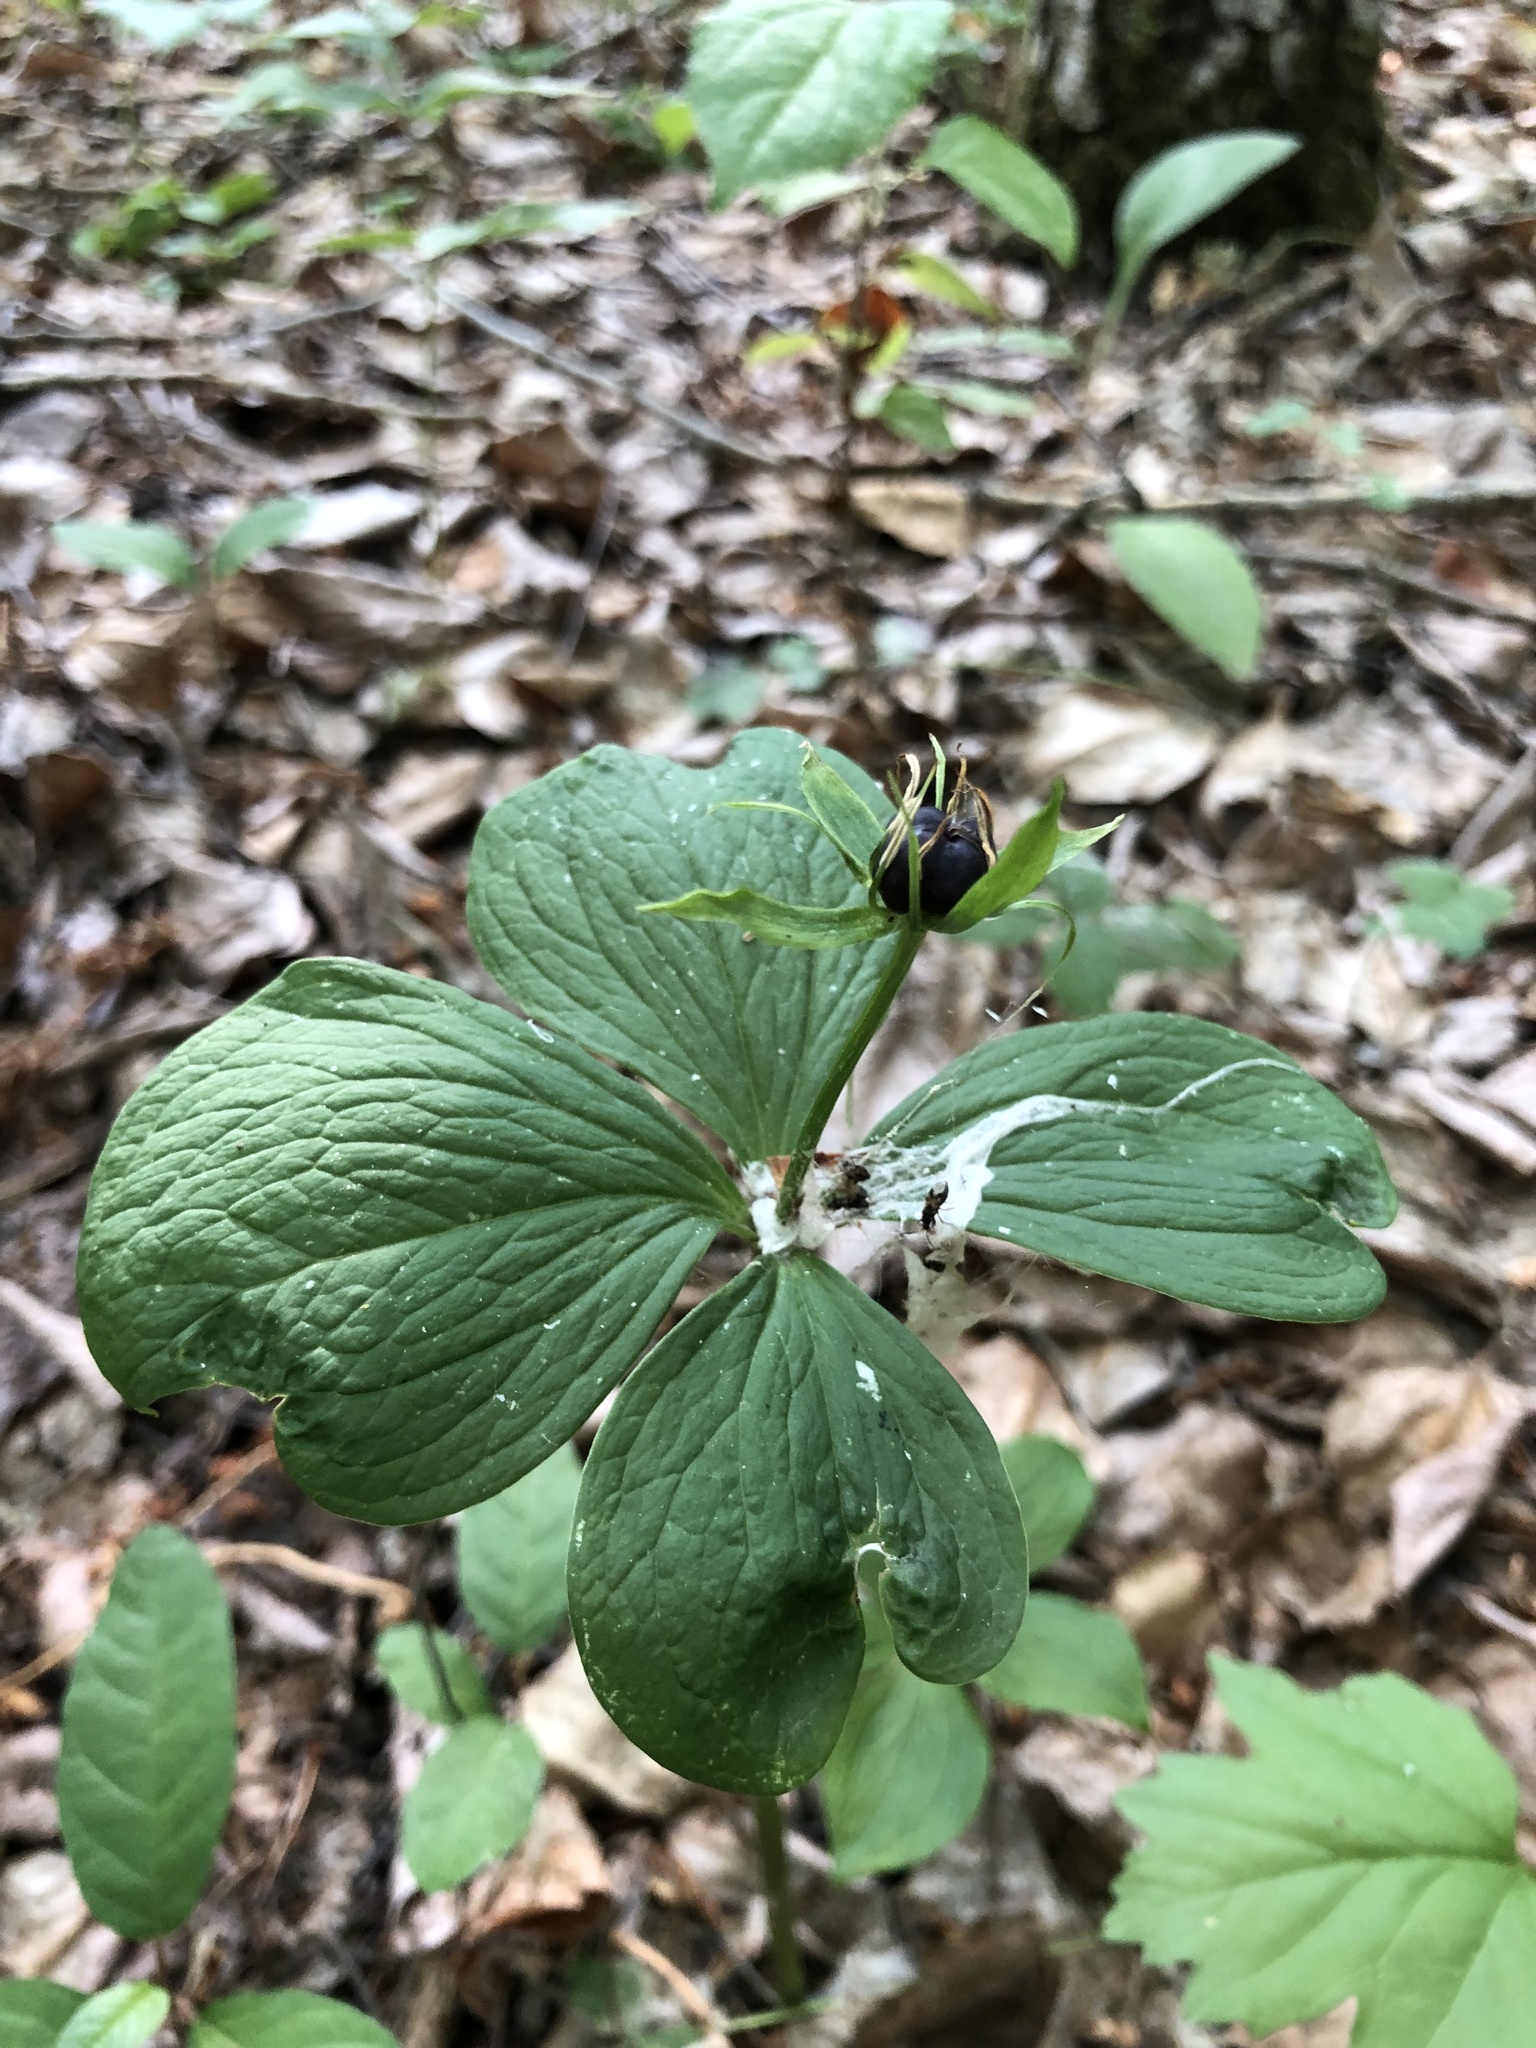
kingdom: Plantae
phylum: Tracheophyta
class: Liliopsida
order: Liliales
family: Melanthiaceae
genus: Paris
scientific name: Paris quadrifolia
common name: Herb-paris
